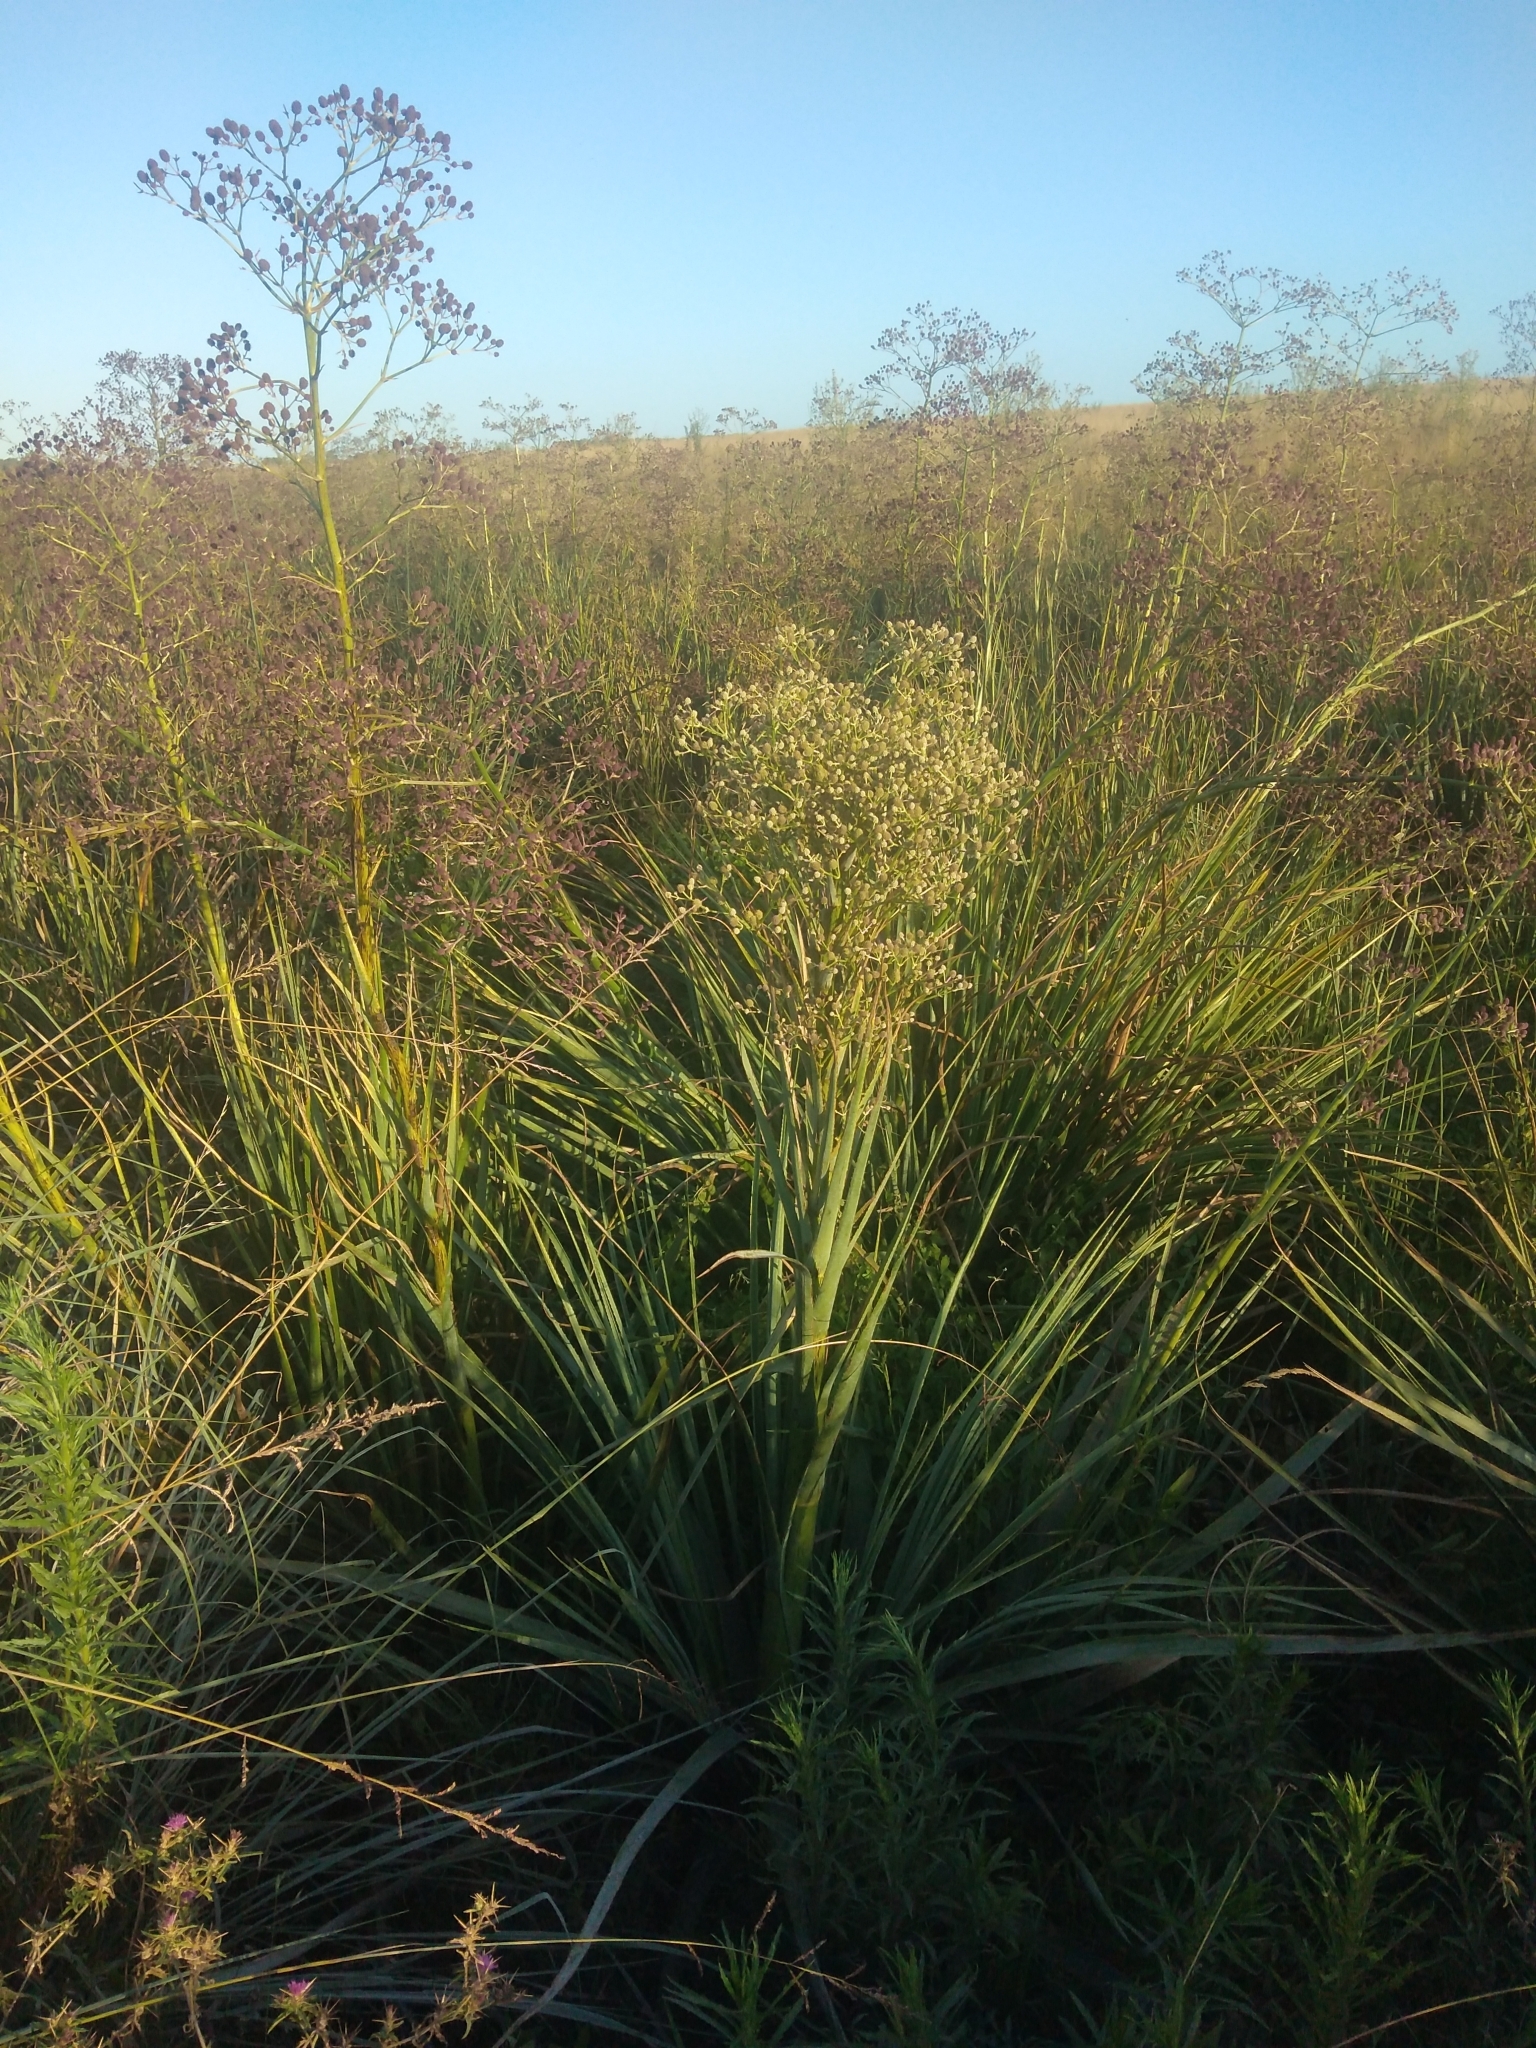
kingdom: Plantae
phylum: Tracheophyta
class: Magnoliopsida
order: Apiales
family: Apiaceae
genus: Eryngium
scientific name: Eryngium pandanifolium
